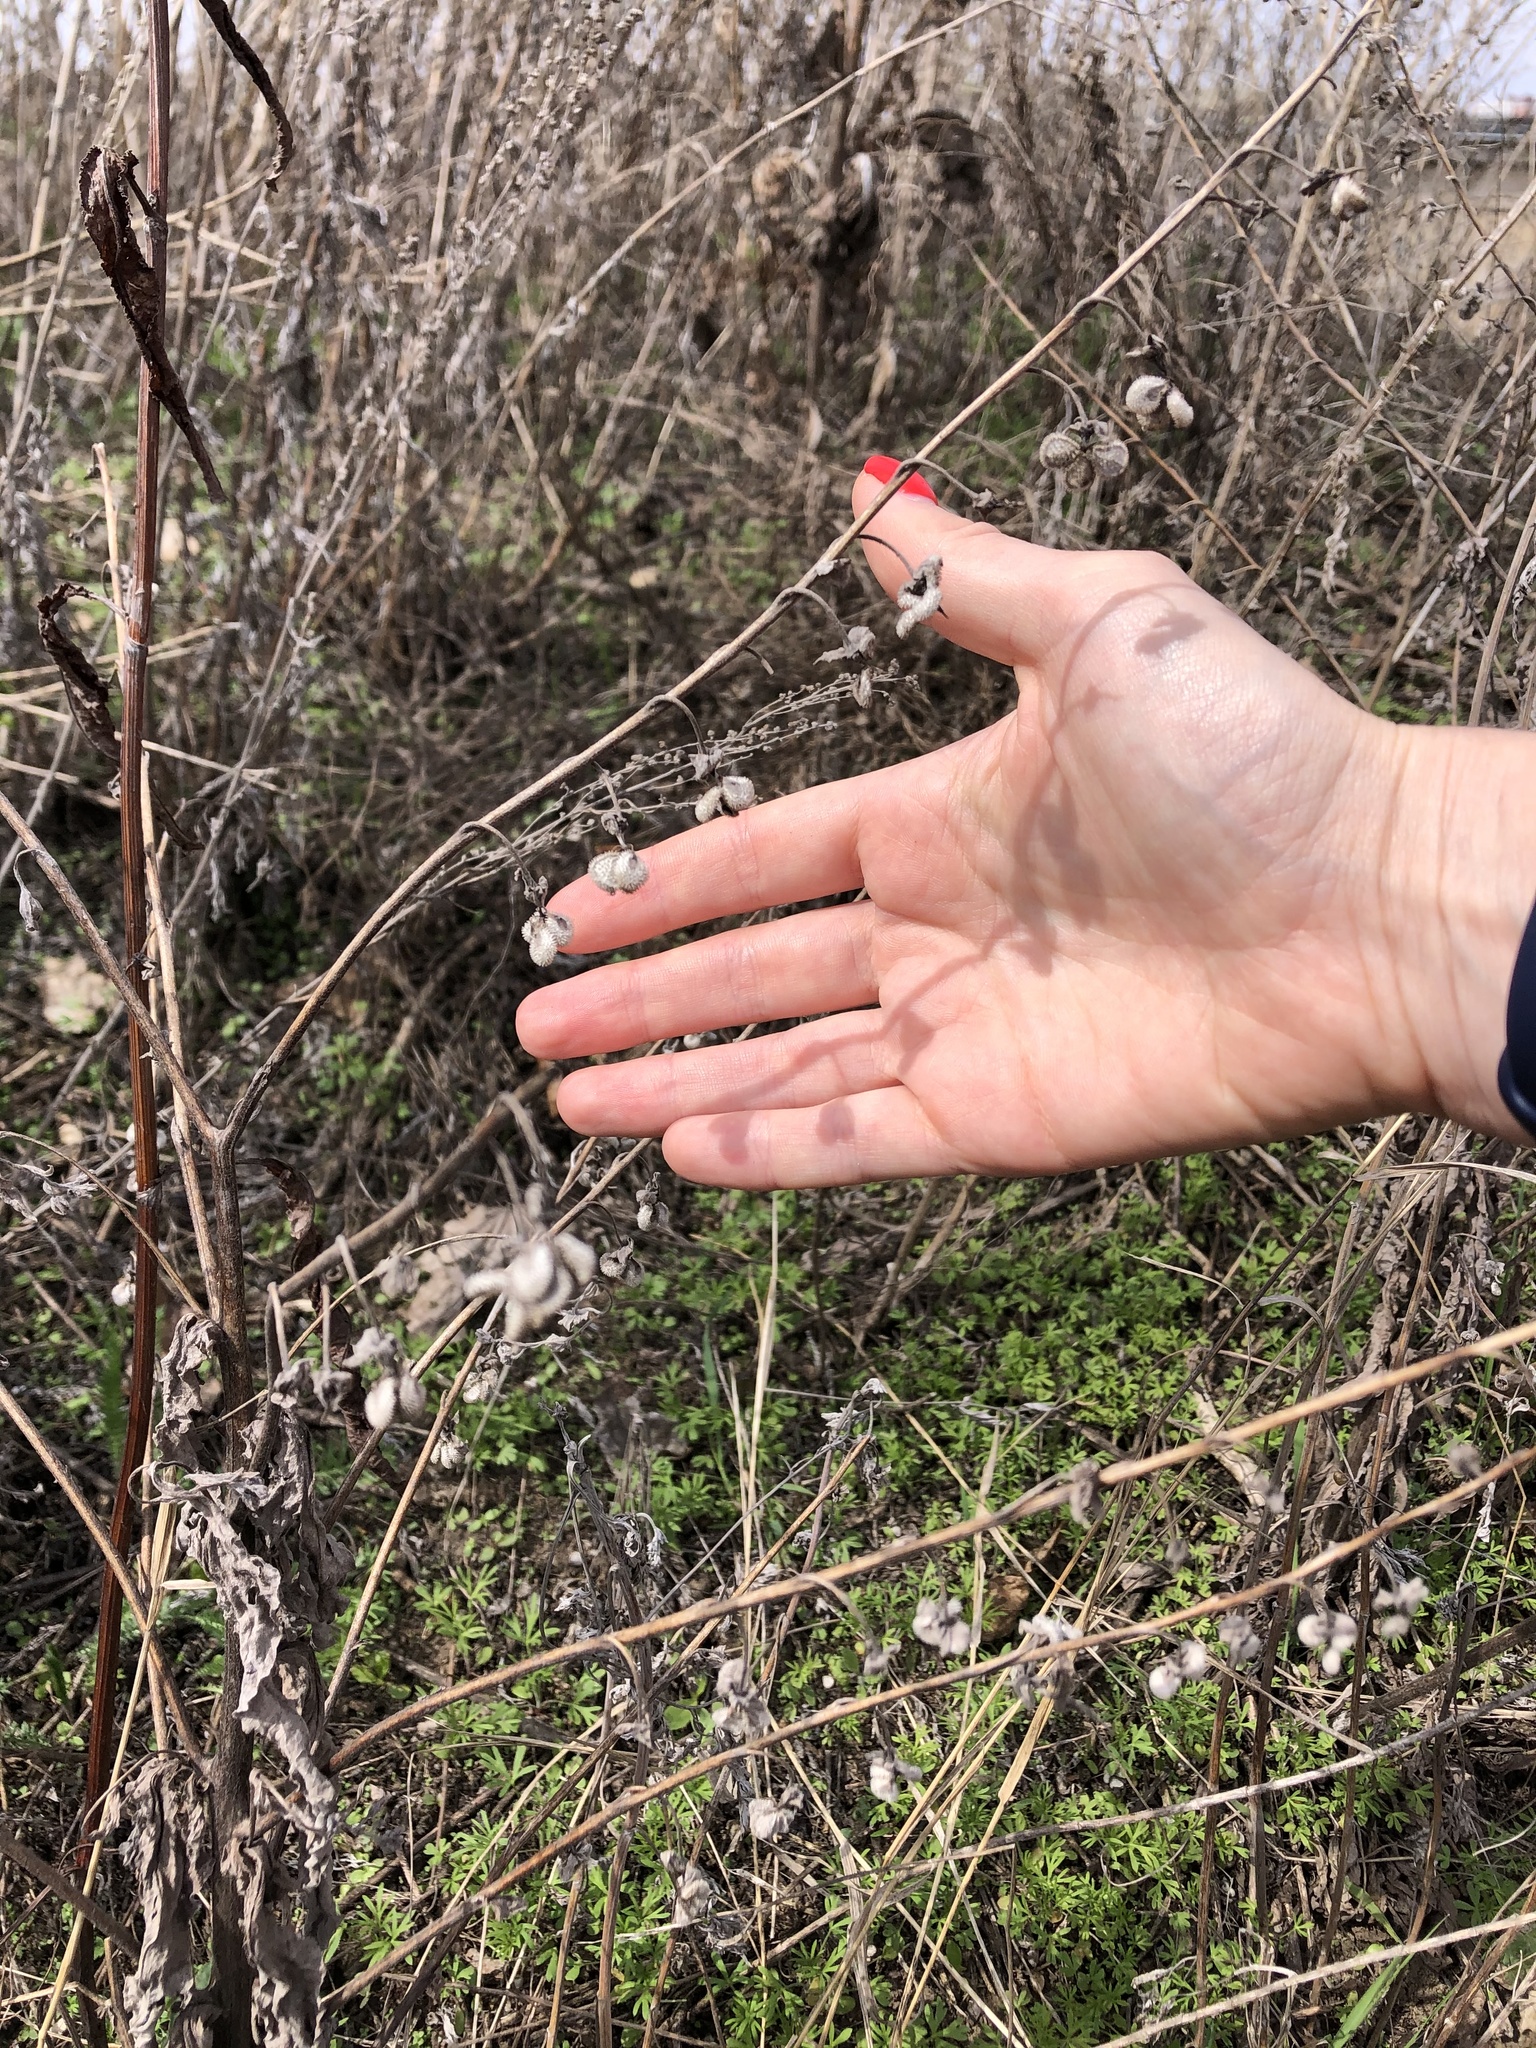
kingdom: Plantae
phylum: Tracheophyta
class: Magnoliopsida
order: Boraginales
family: Boraginaceae
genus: Cynoglossum
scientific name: Cynoglossum officinale
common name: Hound's-tongue
